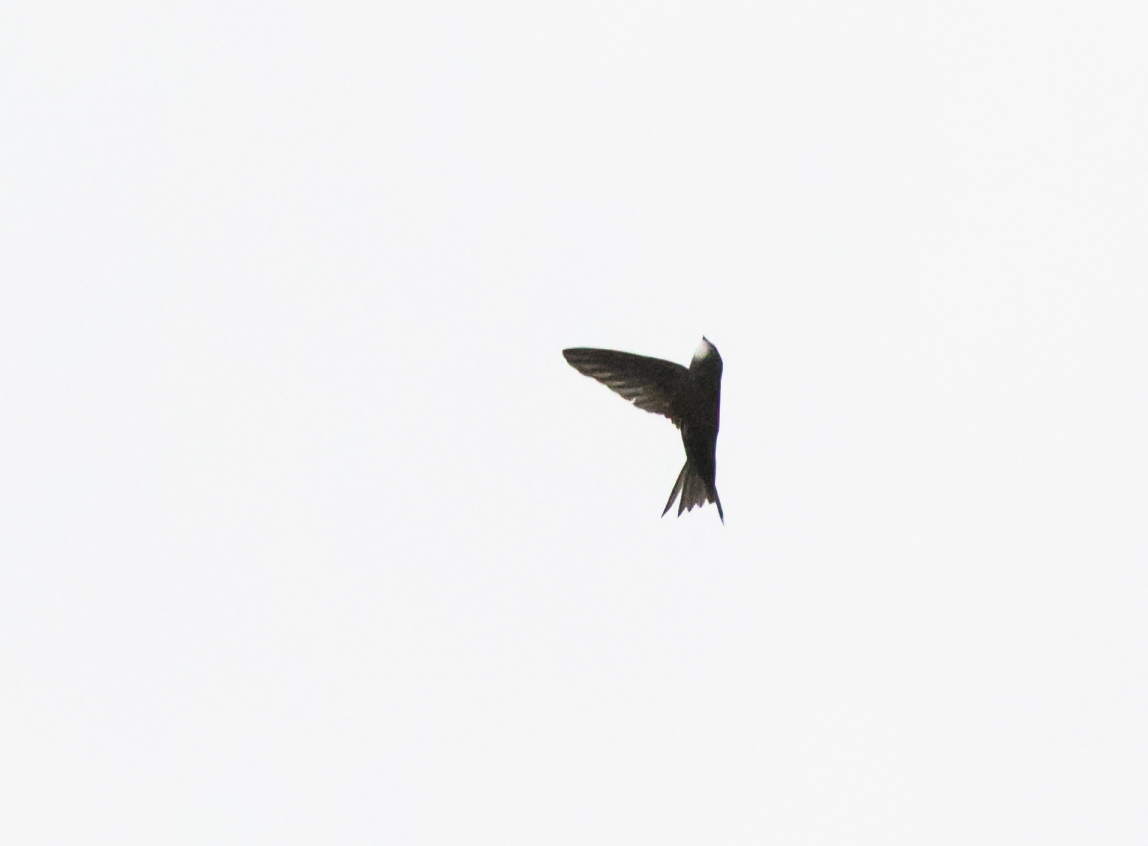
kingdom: Animalia
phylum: Chordata
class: Aves
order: Apodiformes
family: Apodidae
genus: Apus
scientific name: Apus apus
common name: Common swift
